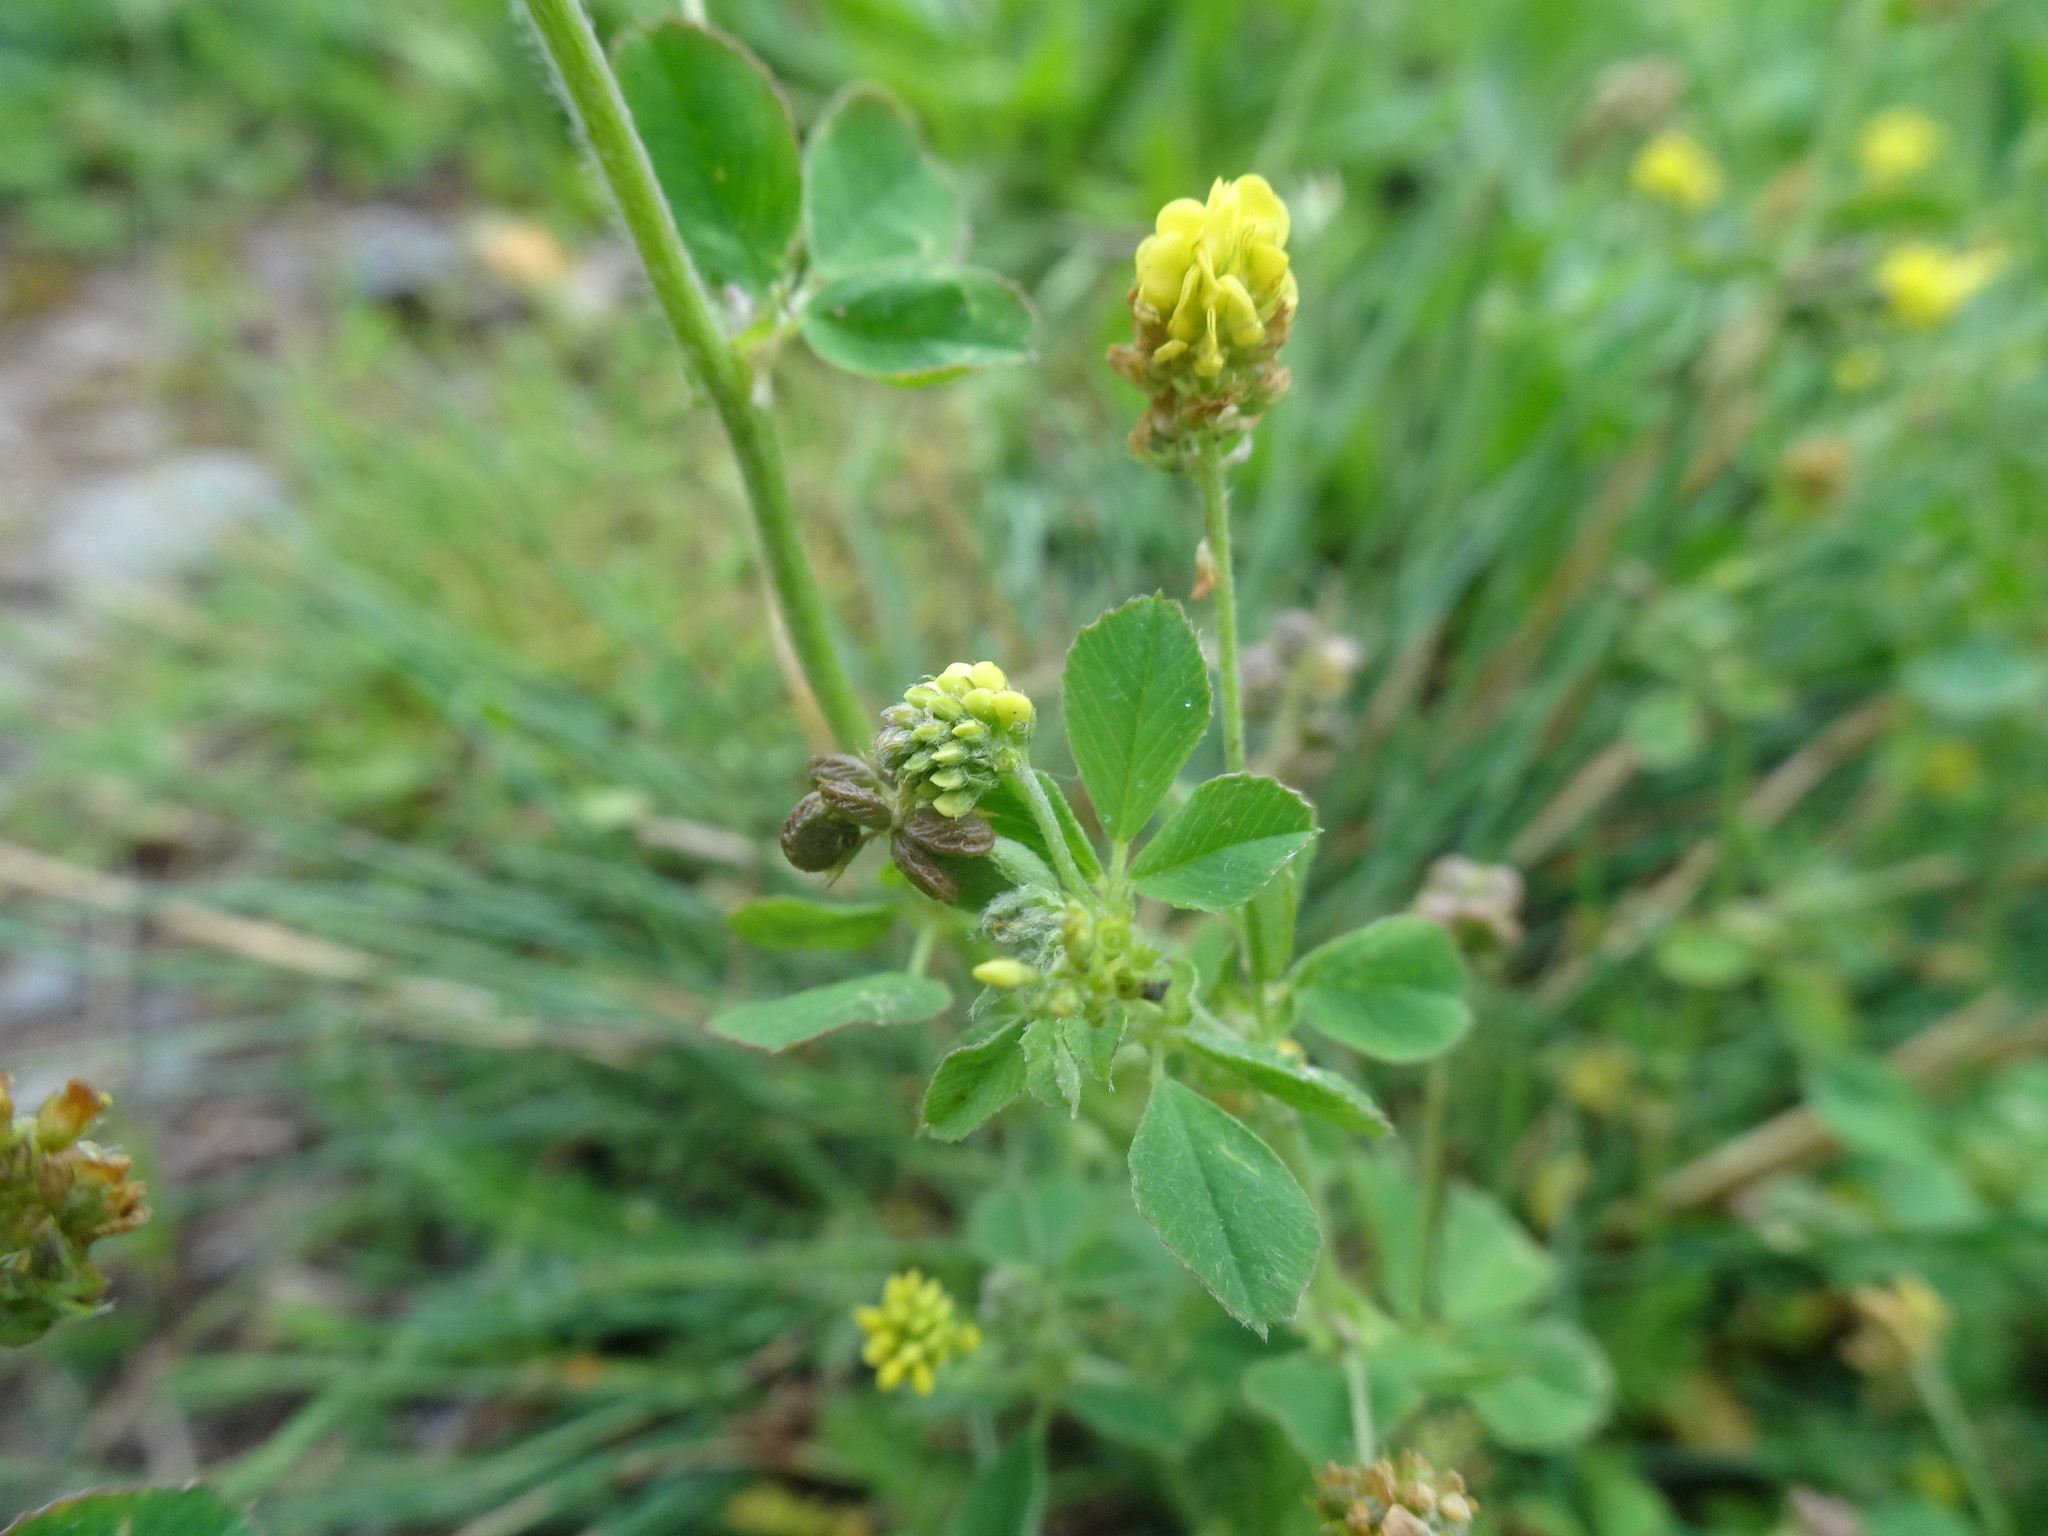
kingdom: Plantae
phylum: Tracheophyta
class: Magnoliopsida
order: Fabales
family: Fabaceae
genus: Medicago
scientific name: Medicago lupulina
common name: Black medick
